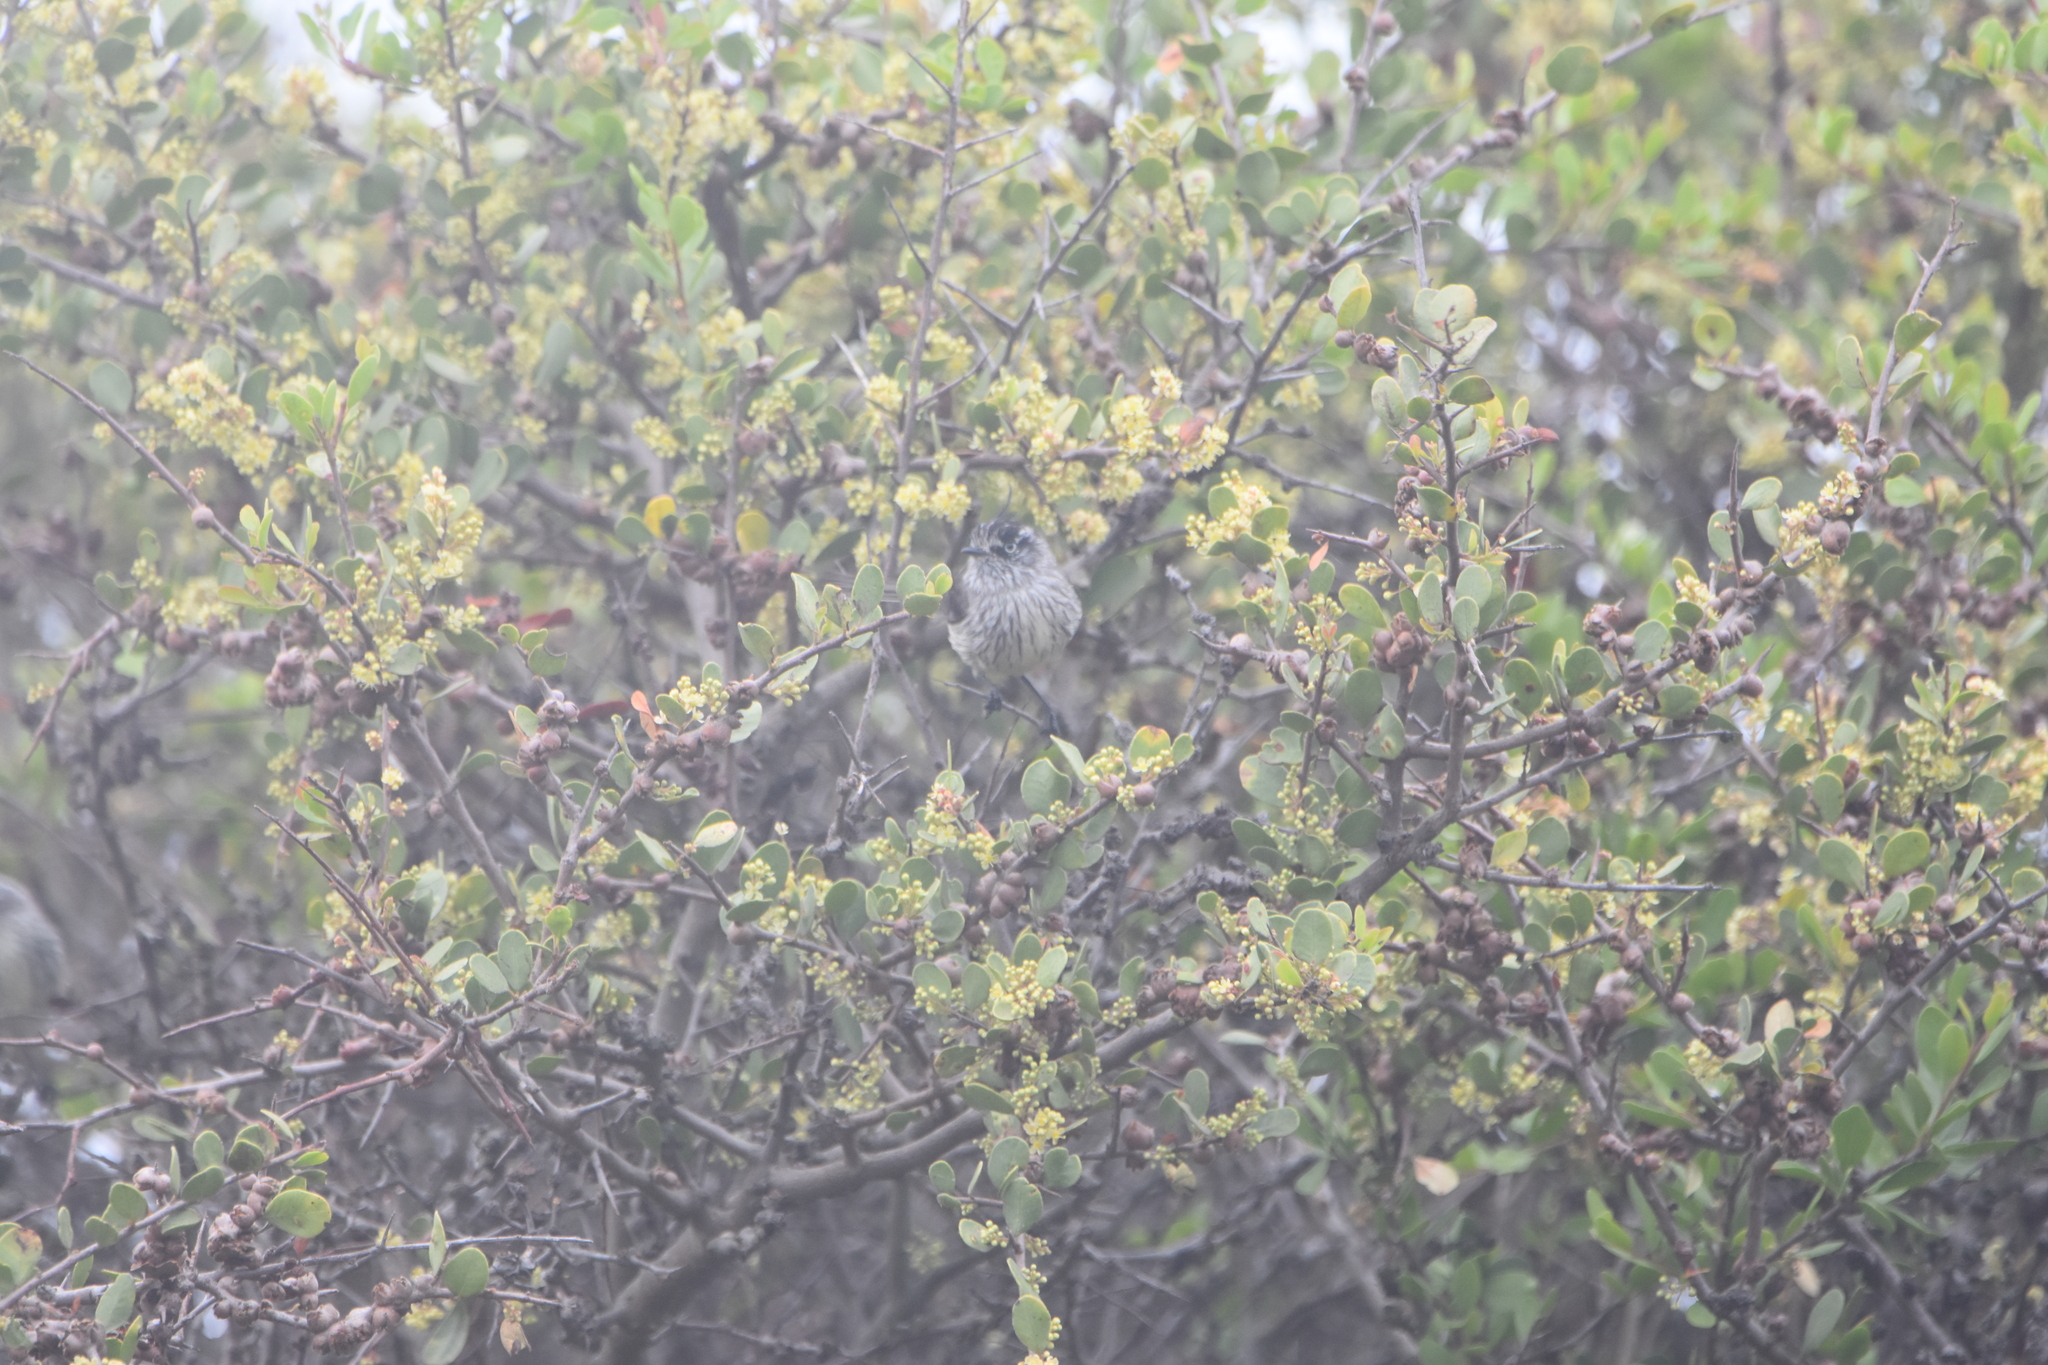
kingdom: Animalia
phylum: Chordata
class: Aves
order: Passeriformes
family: Tyrannidae
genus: Anairetes
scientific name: Anairetes parulus
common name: Tufted tit-tyrant
